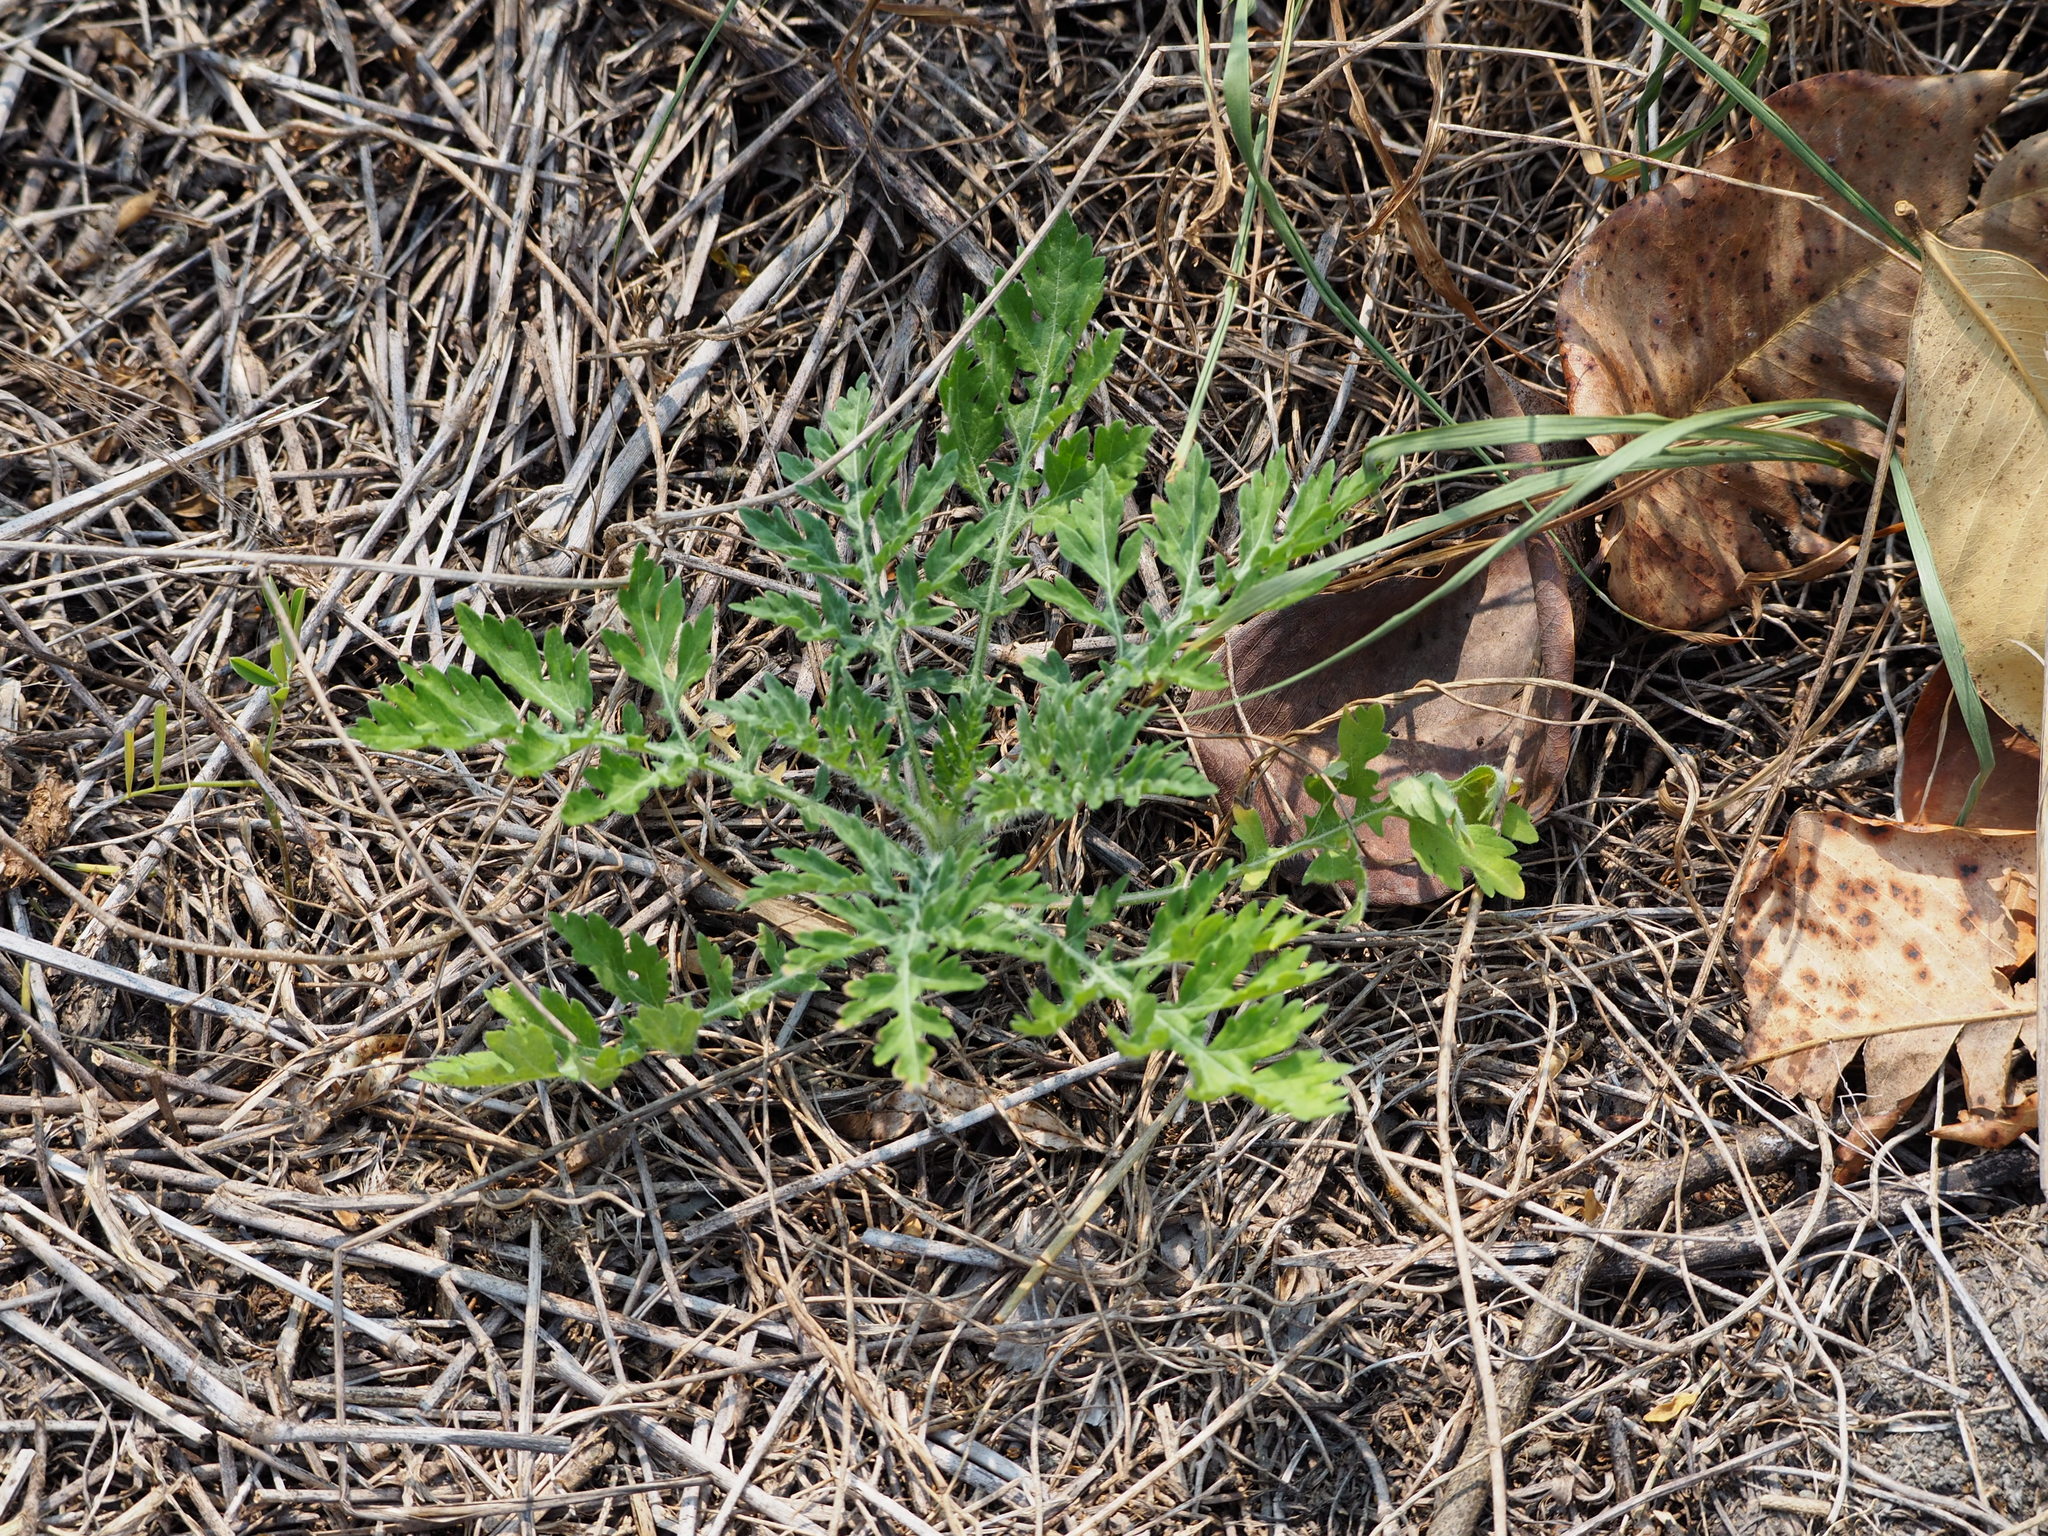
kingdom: Plantae
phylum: Tracheophyta
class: Magnoliopsida
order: Asterales
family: Asteraceae
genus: Parthenium
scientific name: Parthenium hysterophorus
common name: Santa maria feverfew
